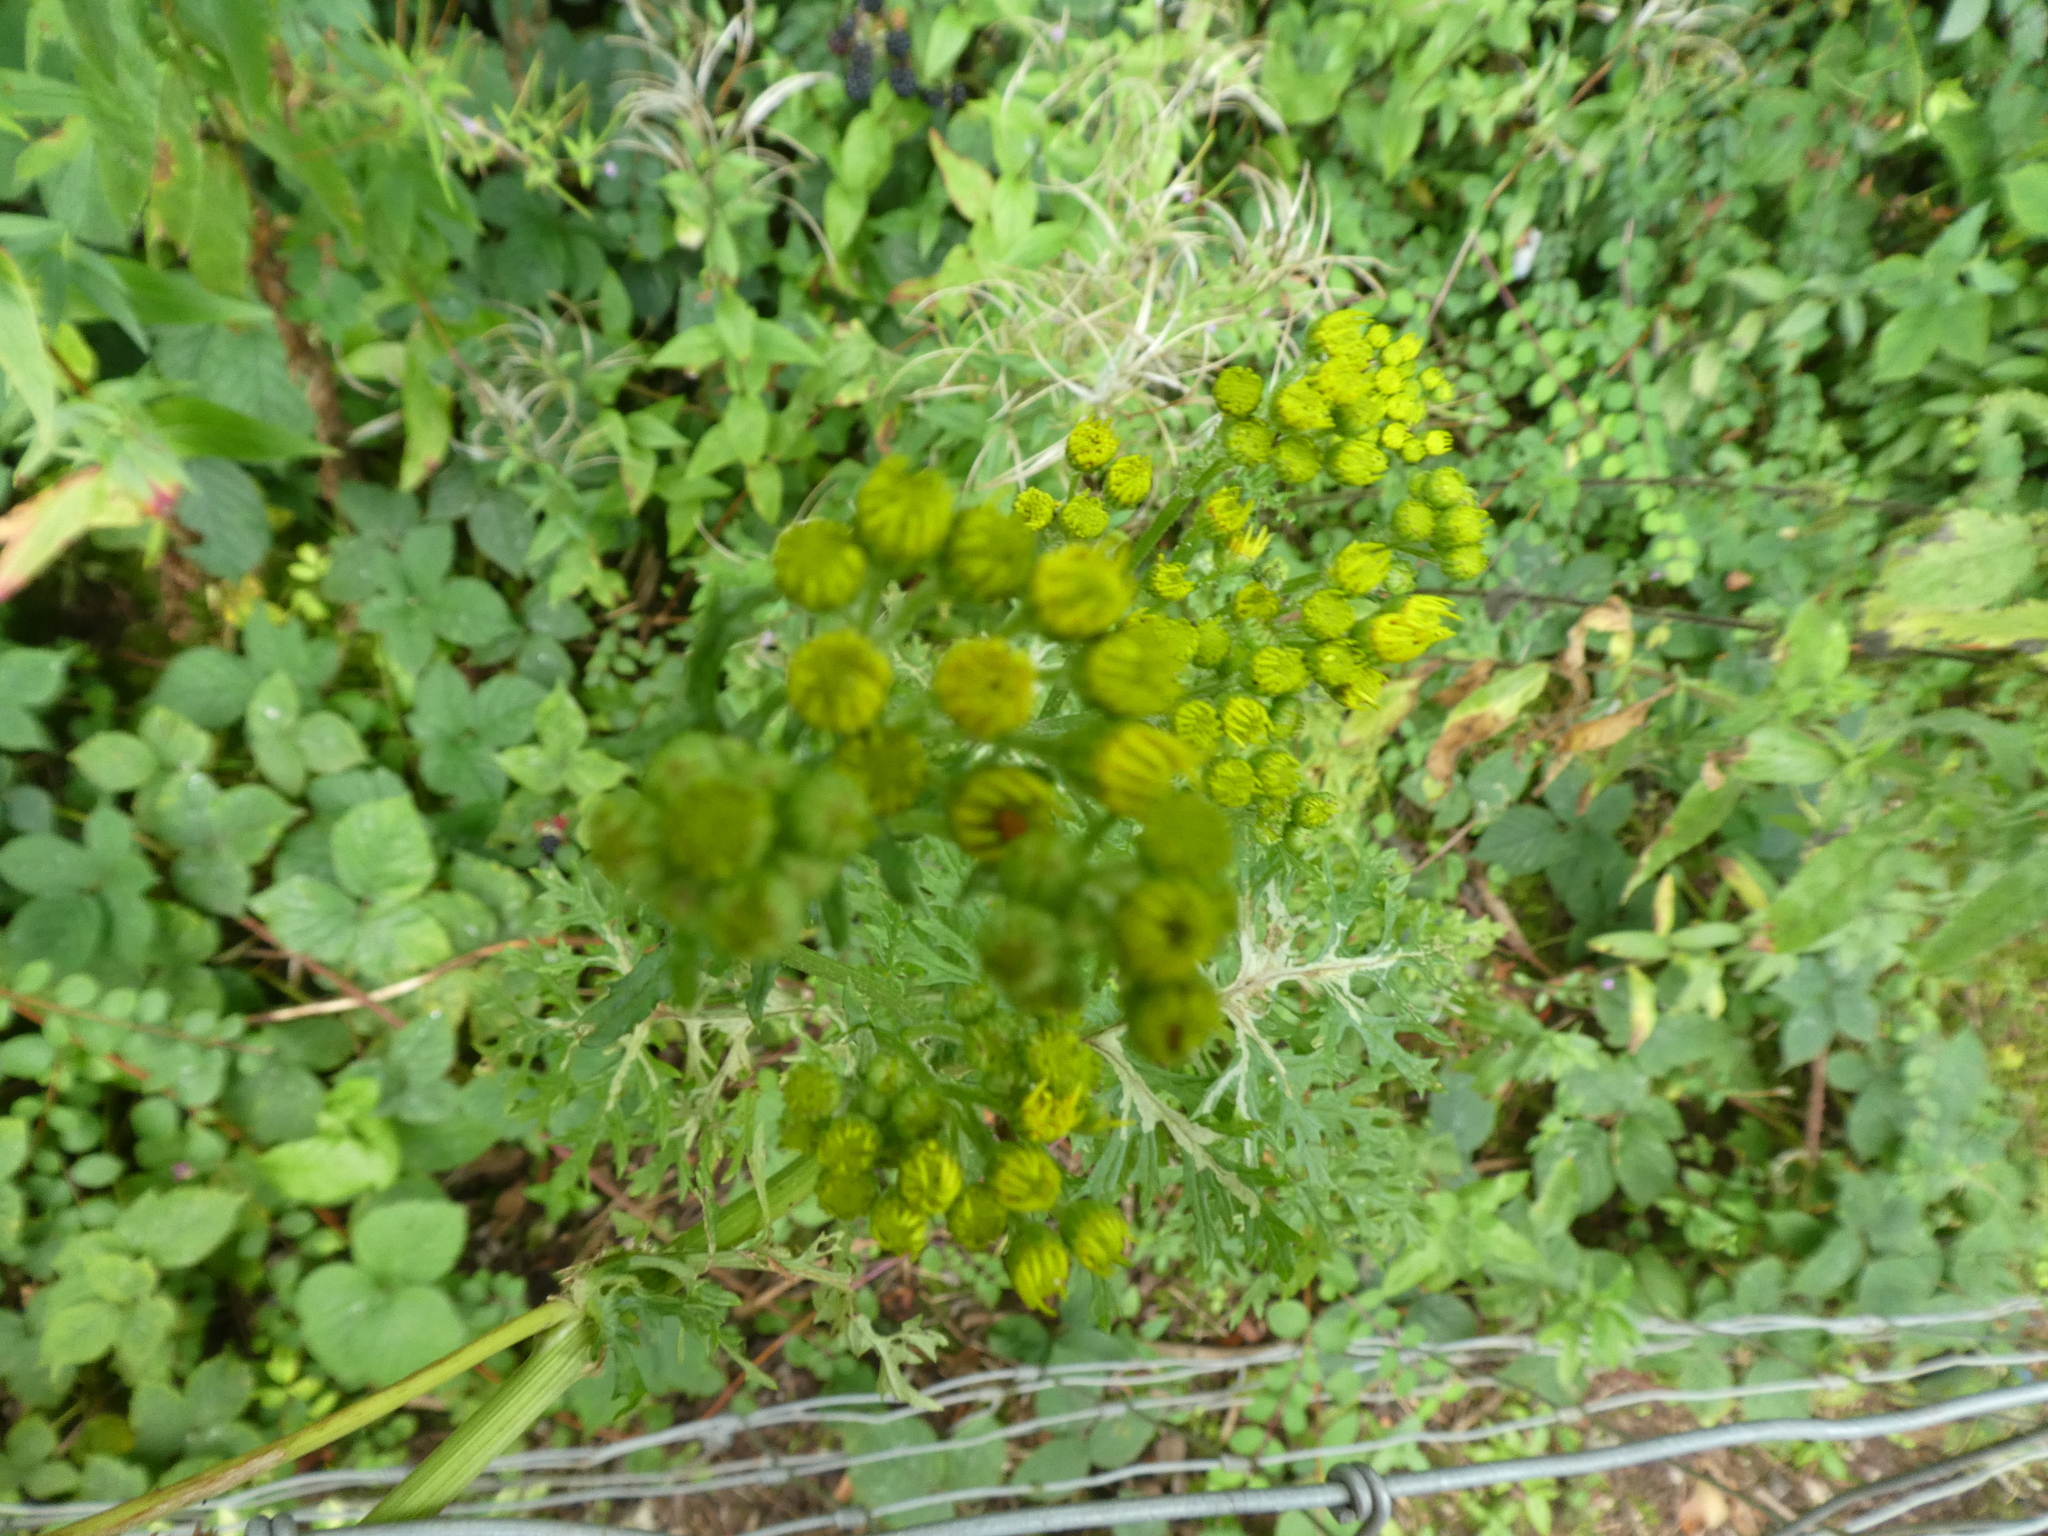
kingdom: Plantae
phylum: Tracheophyta
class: Magnoliopsida
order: Asterales
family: Asteraceae
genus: Jacobaea
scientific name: Jacobaea vulgaris
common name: Stinking willie
